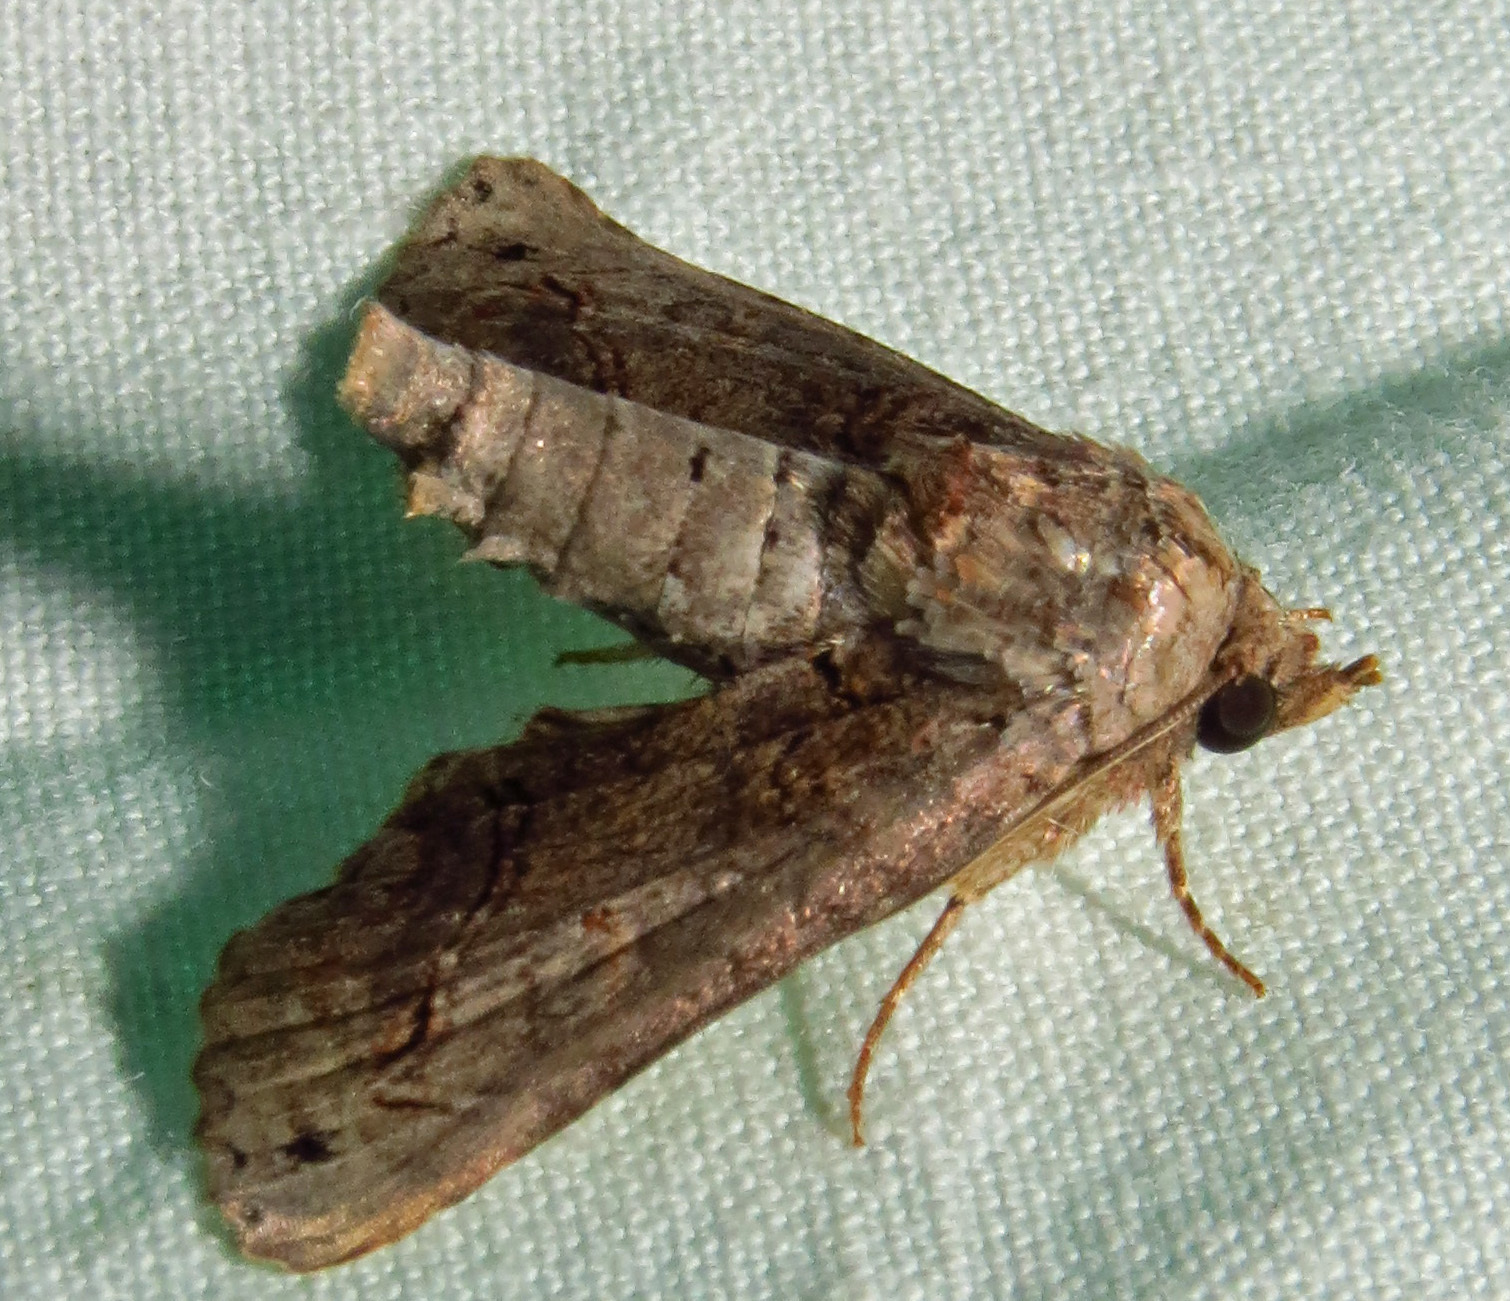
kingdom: Animalia
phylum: Arthropoda
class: Insecta
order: Lepidoptera
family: Euteliidae
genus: Paectes
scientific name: Paectes abrostoloides
